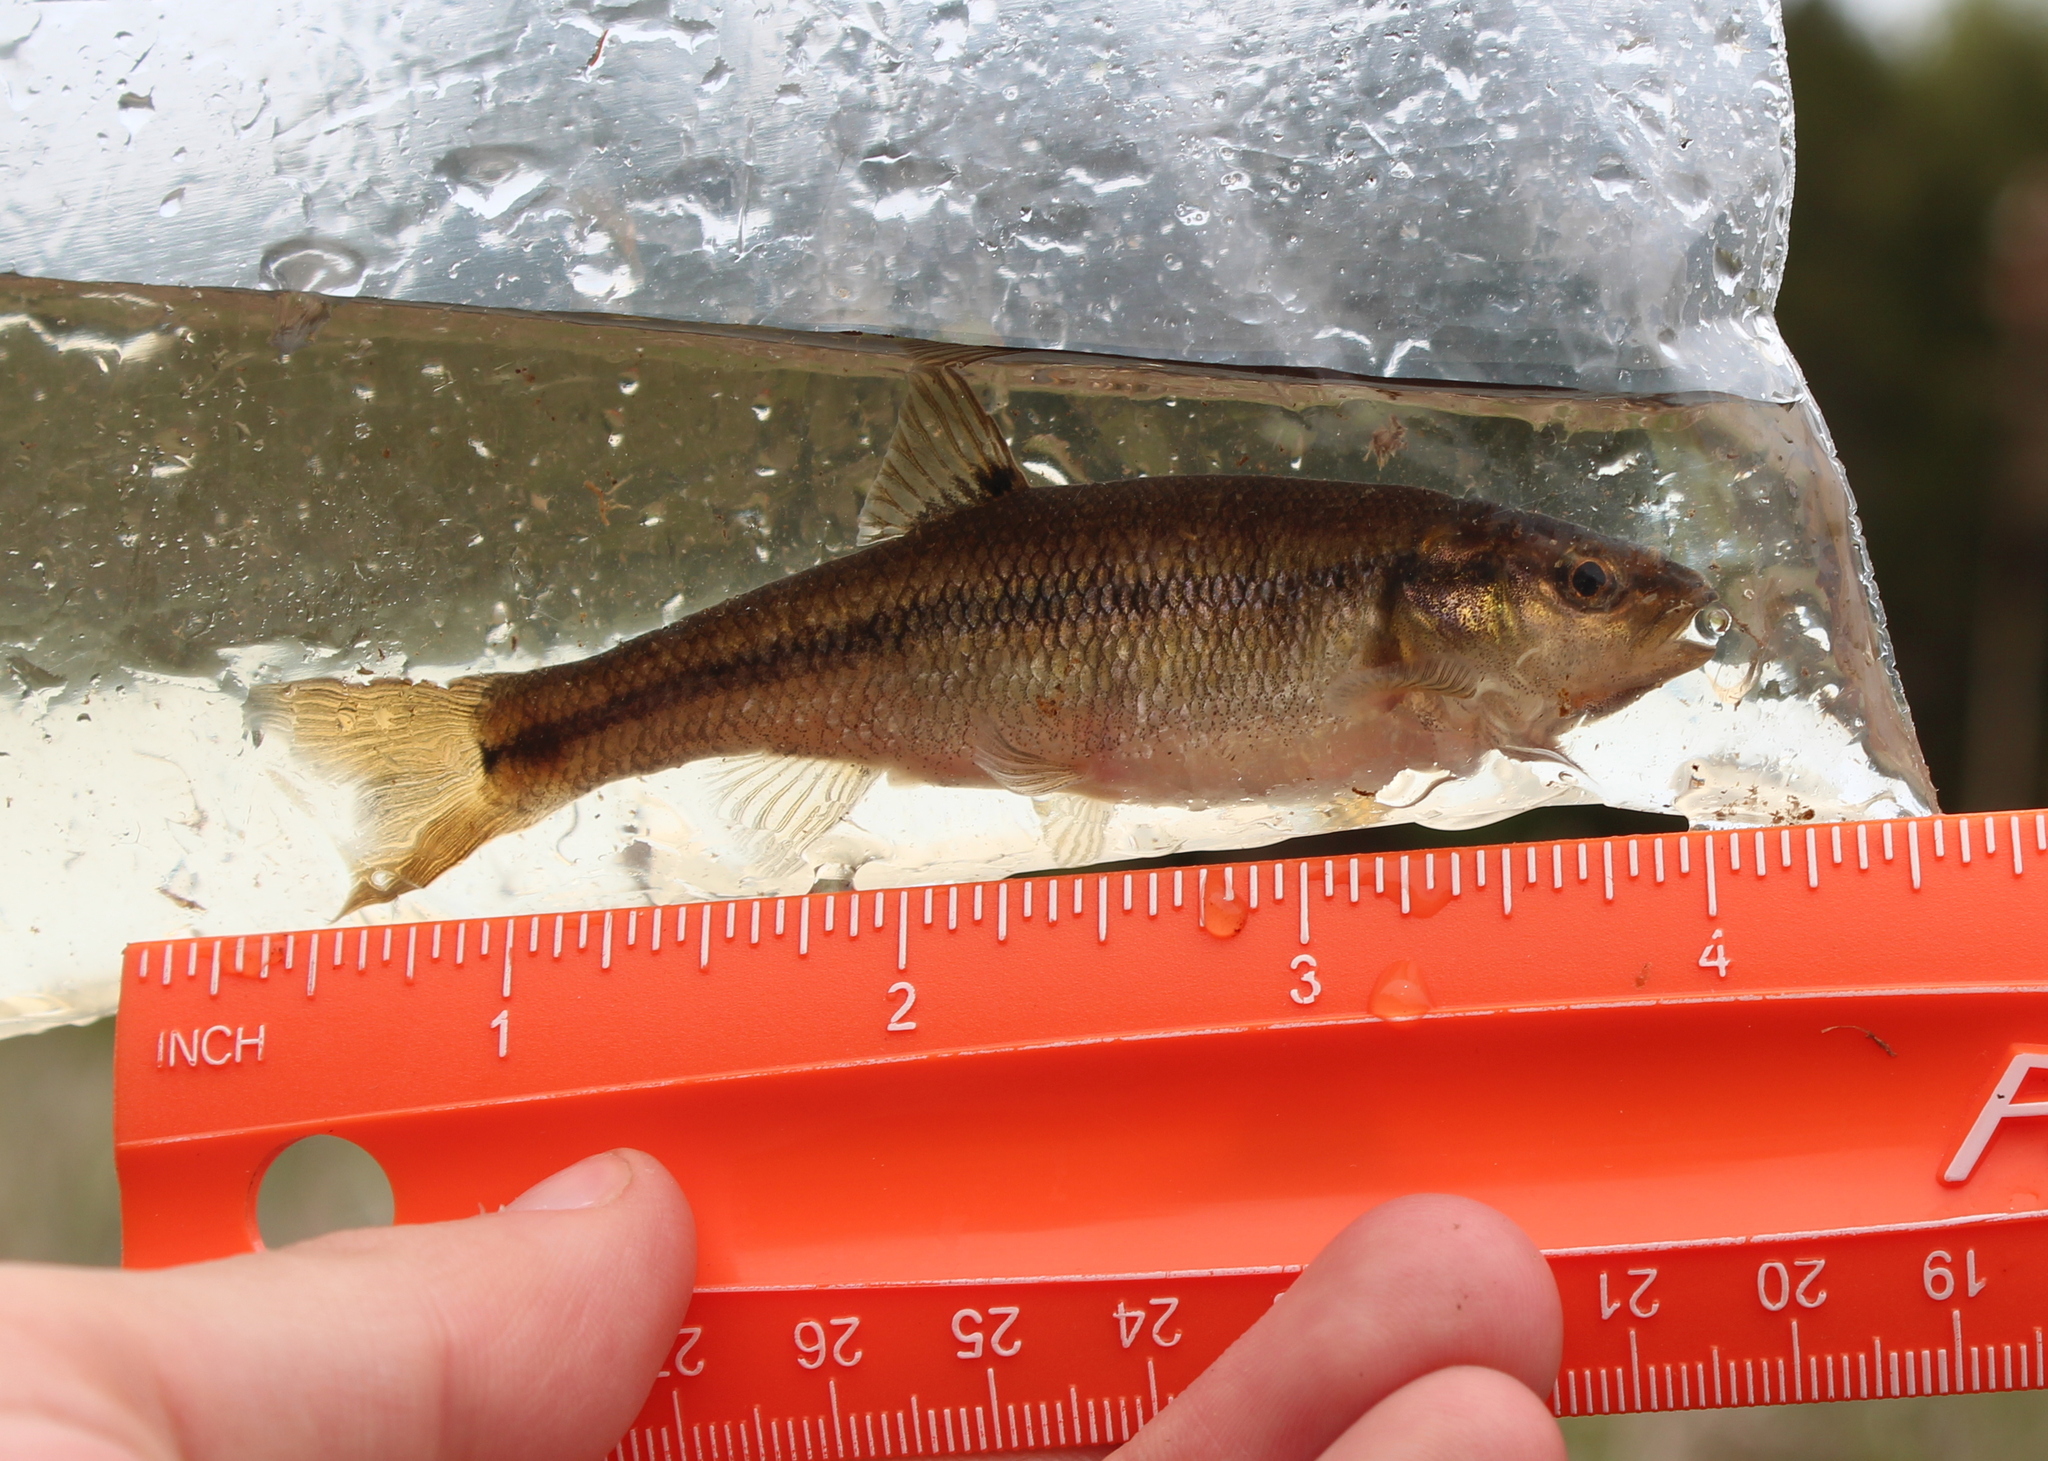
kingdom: Animalia
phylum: Chordata
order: Cypriniformes
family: Cyprinidae
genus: Semotilus
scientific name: Semotilus atromaculatus
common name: Creek chub
